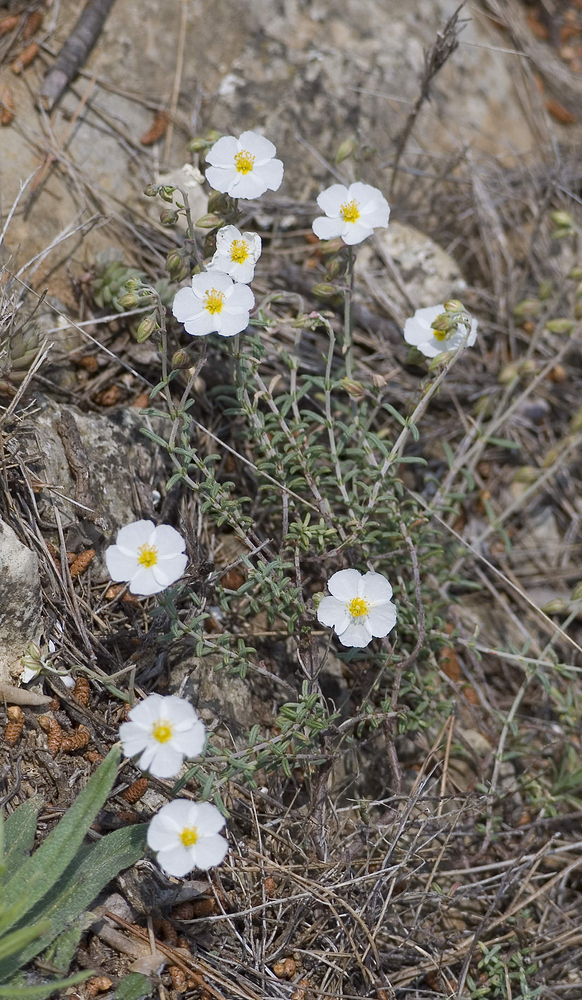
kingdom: Plantae
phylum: Tracheophyta
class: Magnoliopsida
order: Malvales
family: Cistaceae
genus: Helianthemum
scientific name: Helianthemum apenninum
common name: White rock-rose
